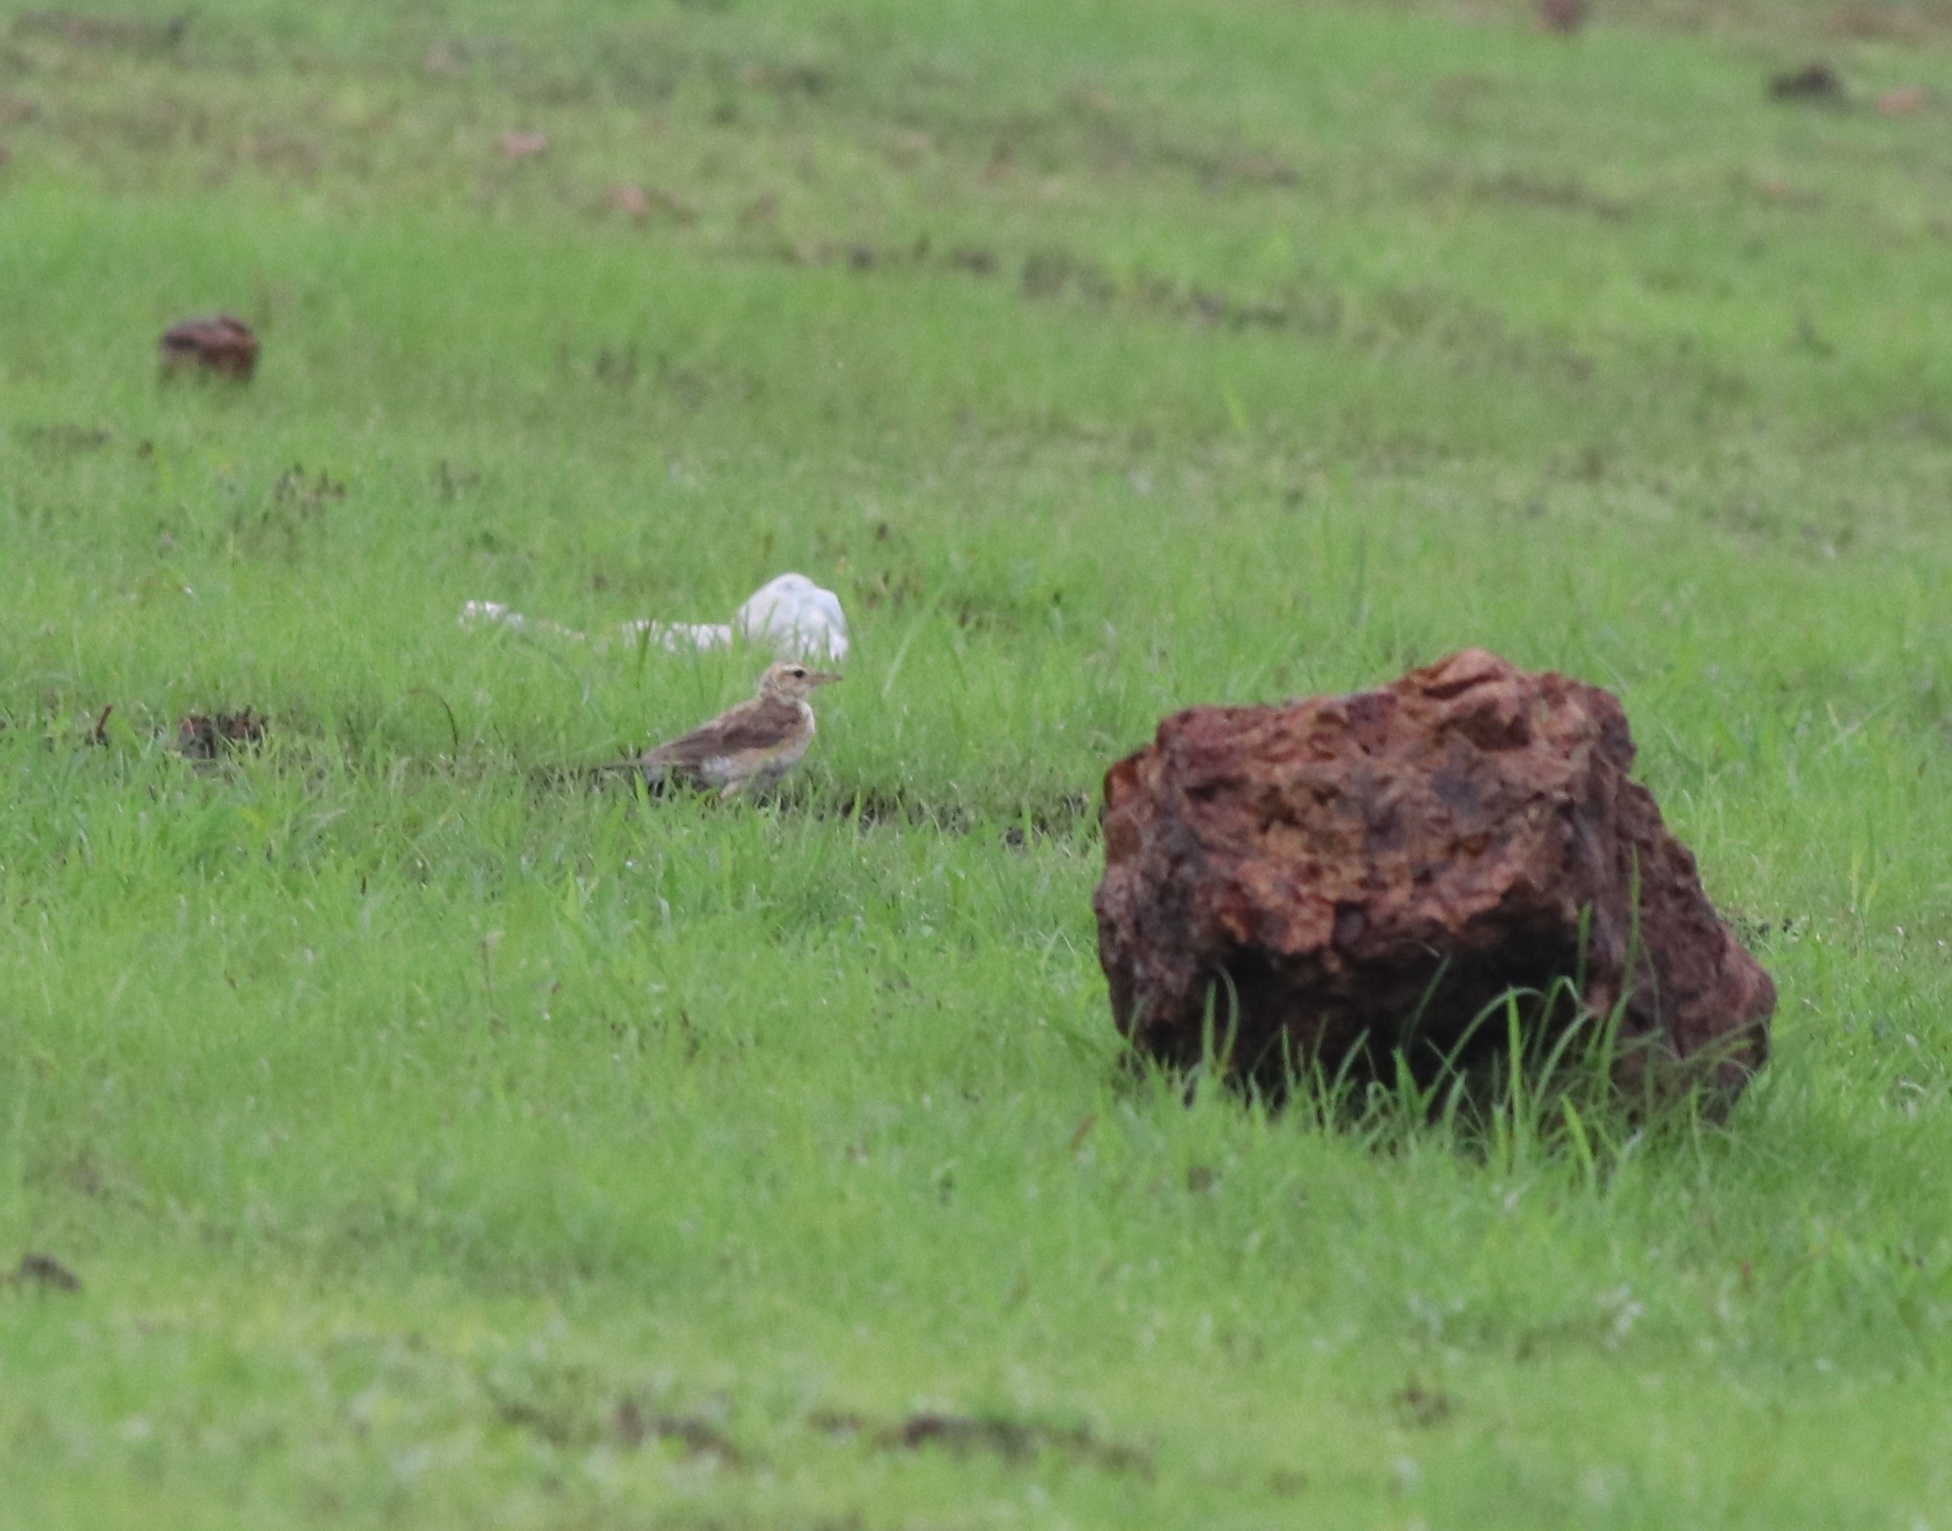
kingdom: Animalia
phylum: Chordata
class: Aves
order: Passeriformes
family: Motacillidae
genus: Anthus
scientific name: Anthus rufulus
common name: Paddyfield pipit
